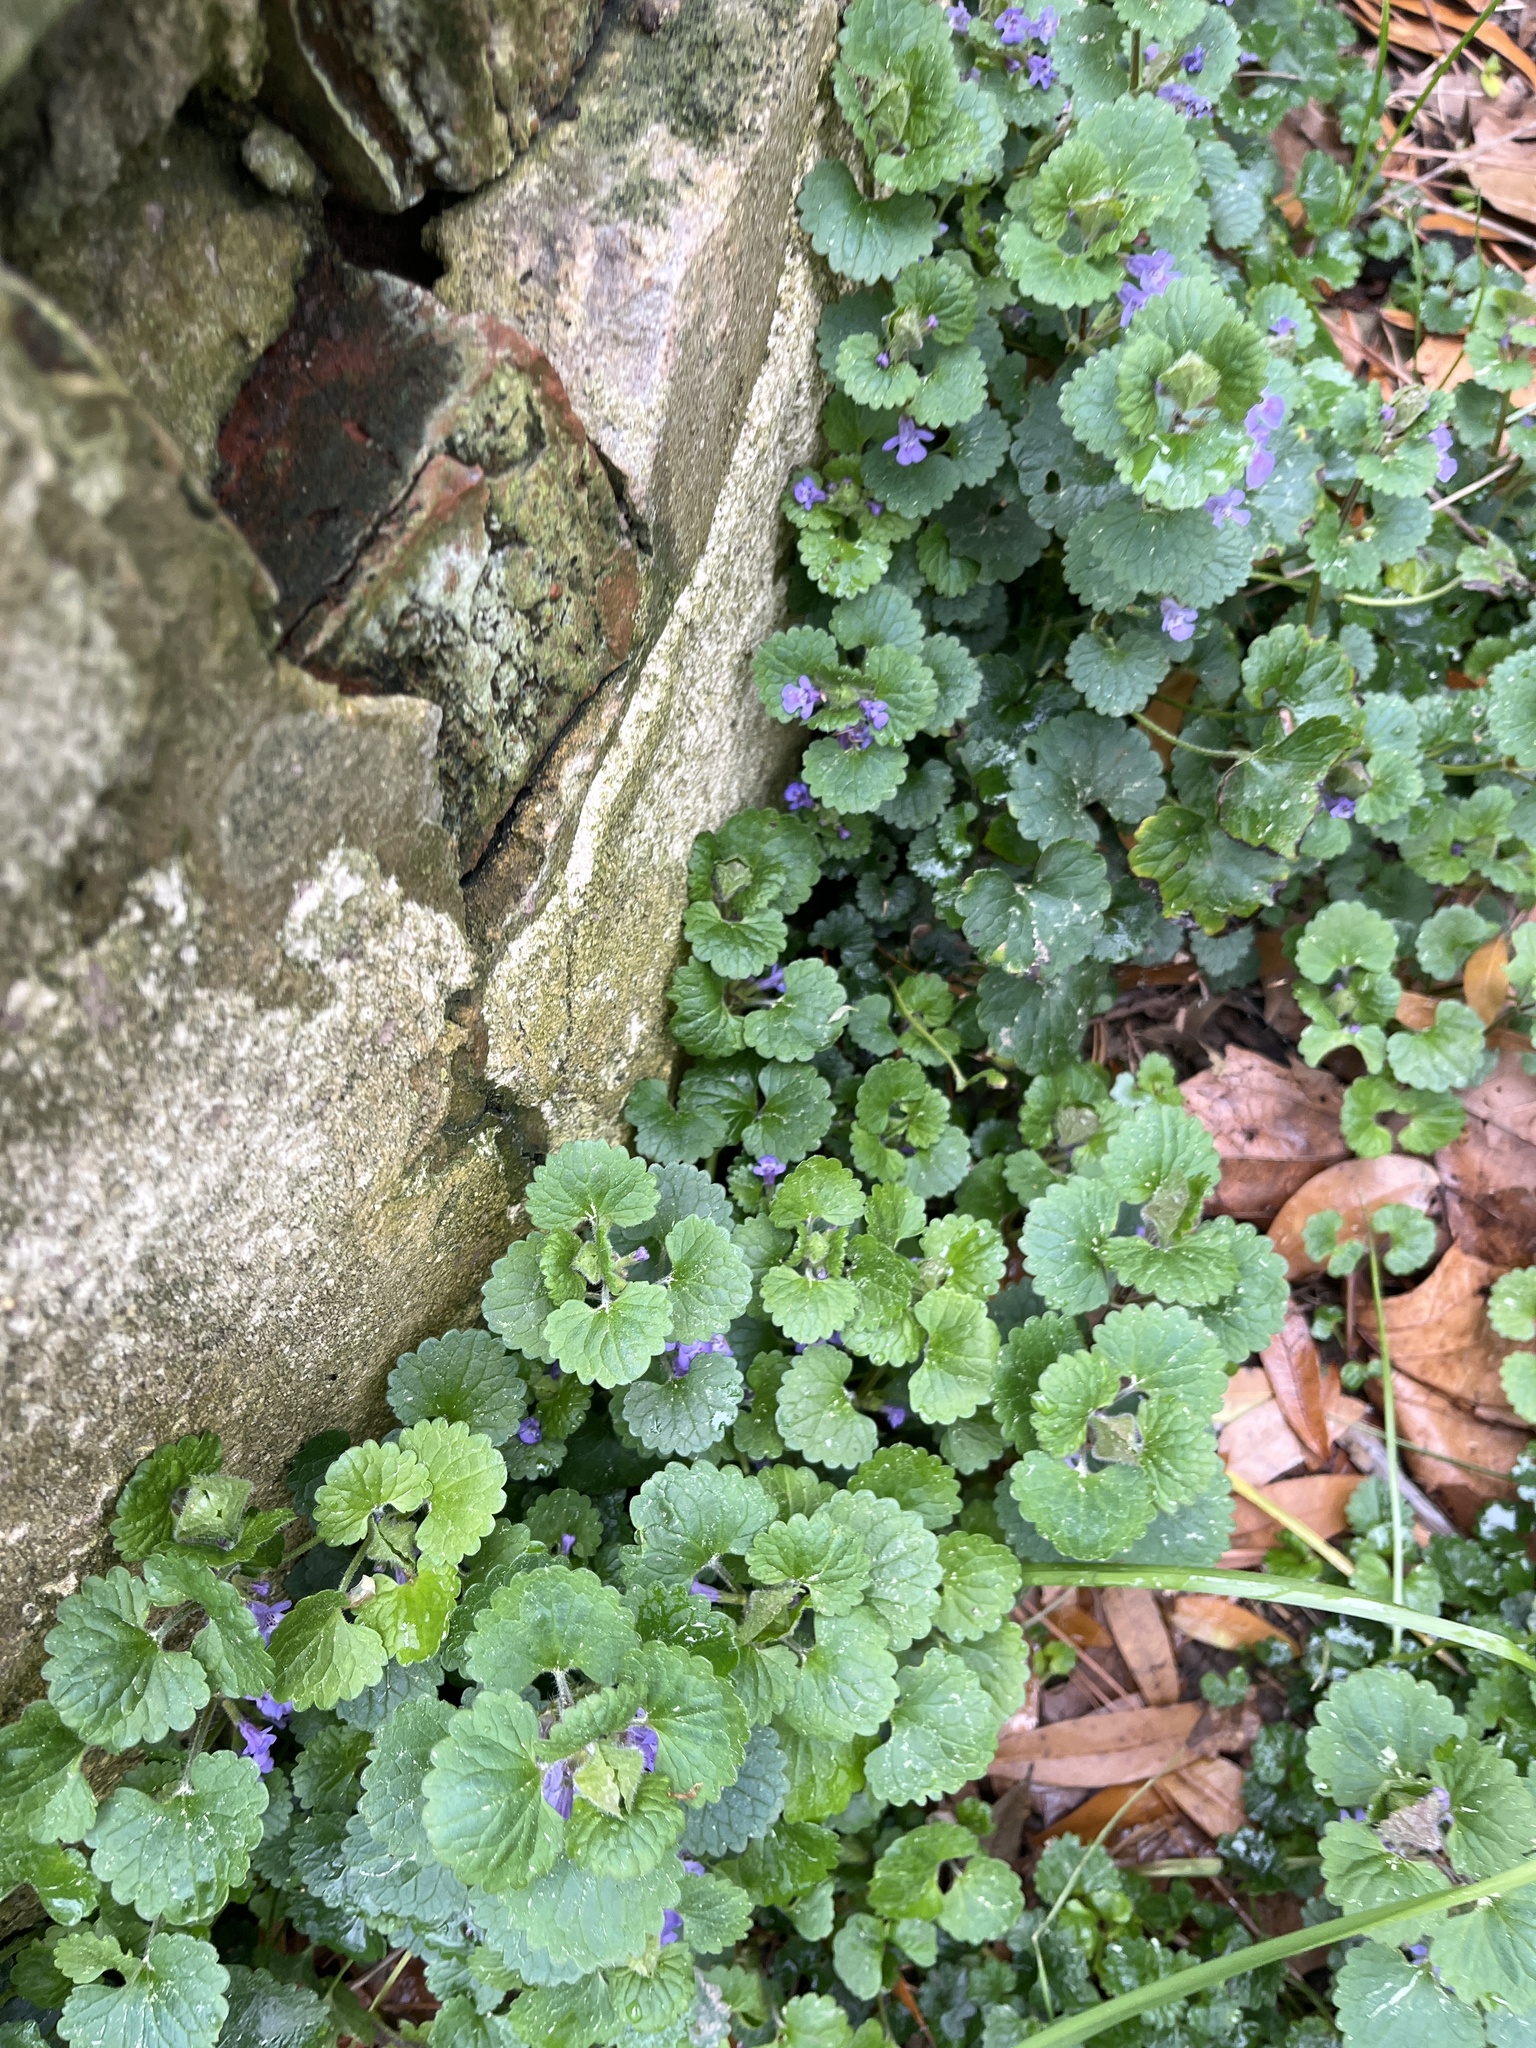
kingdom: Plantae
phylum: Tracheophyta
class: Magnoliopsida
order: Lamiales
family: Lamiaceae
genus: Glechoma
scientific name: Glechoma hederacea
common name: Ground ivy
